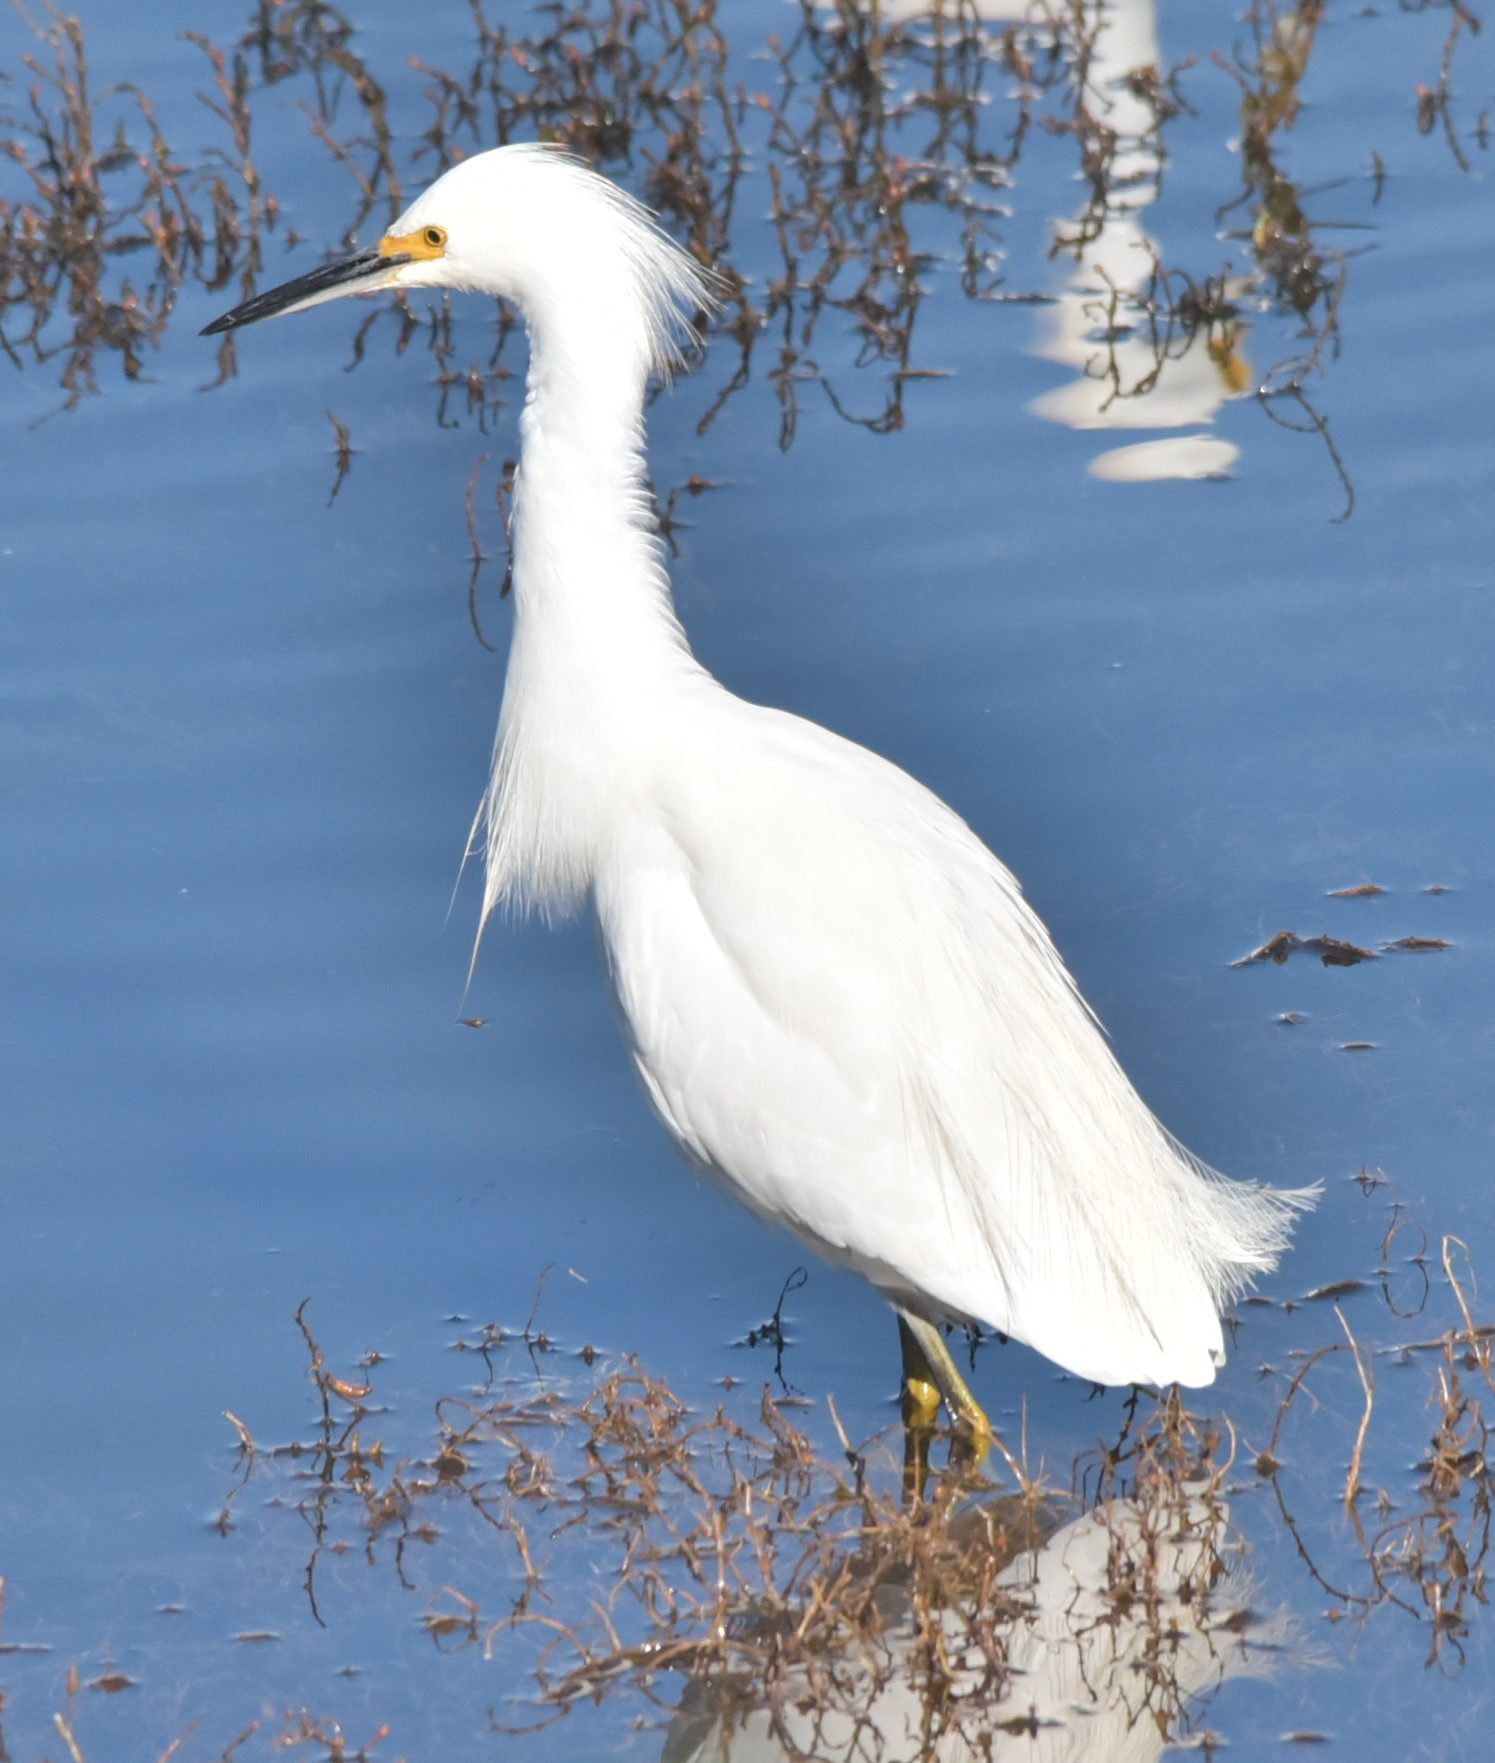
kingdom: Animalia
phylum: Chordata
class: Aves
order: Pelecaniformes
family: Ardeidae
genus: Egretta
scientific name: Egretta thula
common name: Snowy egret
